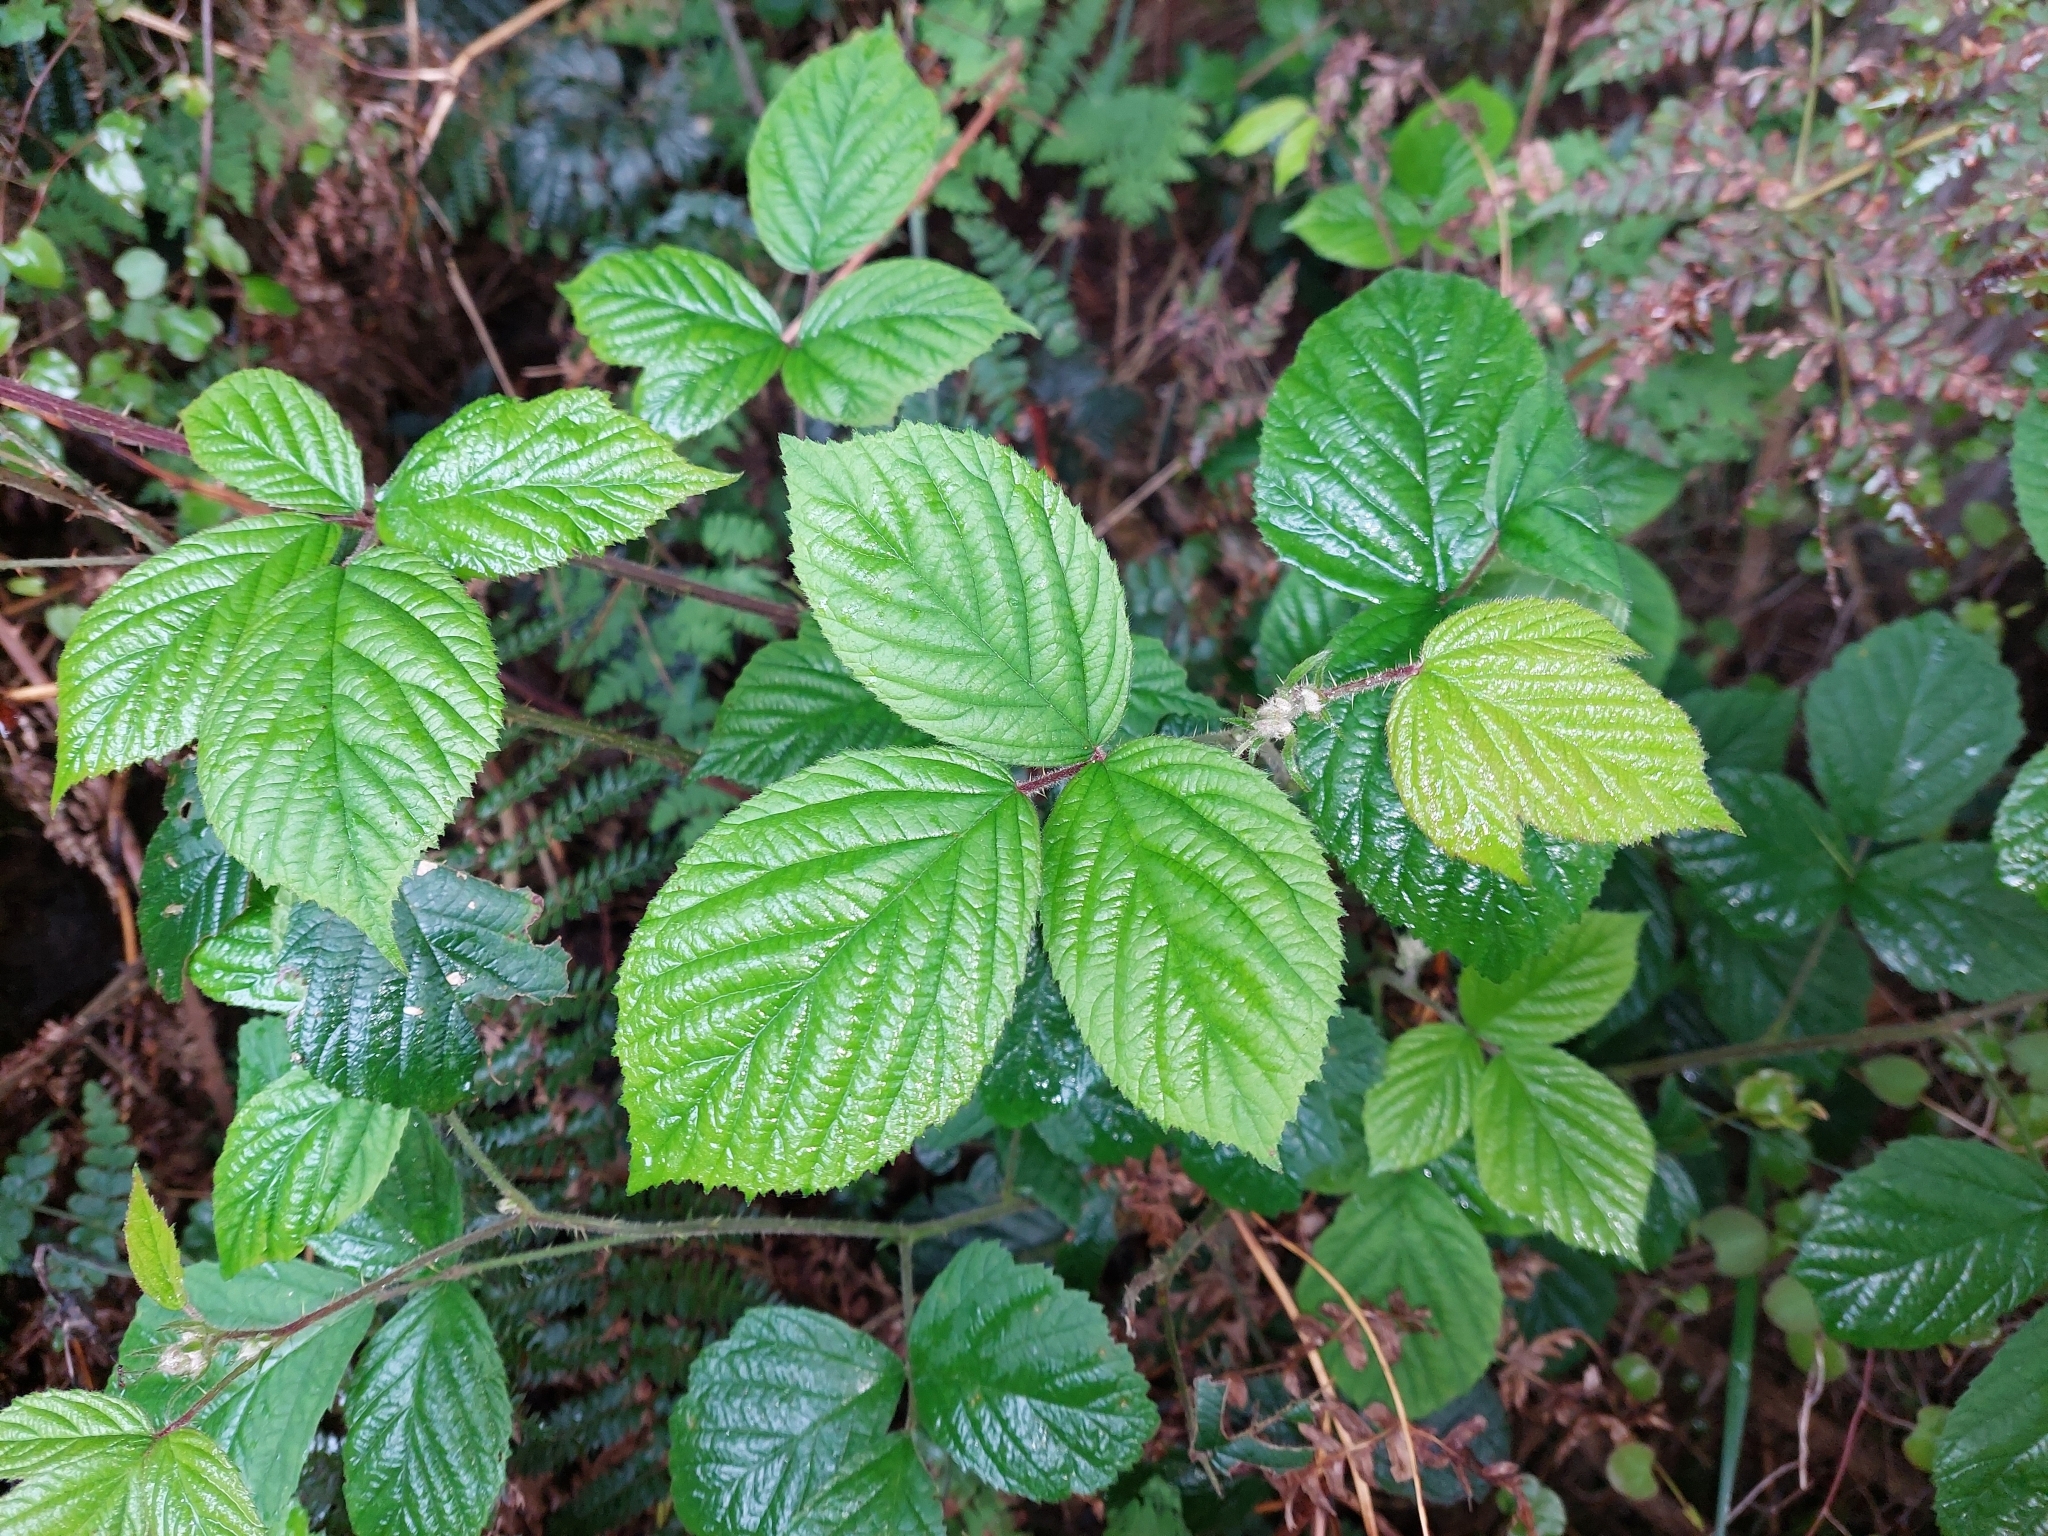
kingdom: Plantae
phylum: Tracheophyta
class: Magnoliopsida
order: Rosales
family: Rosaceae
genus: Rubus
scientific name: Rubus fruticosus
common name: Blackberry, bramble
